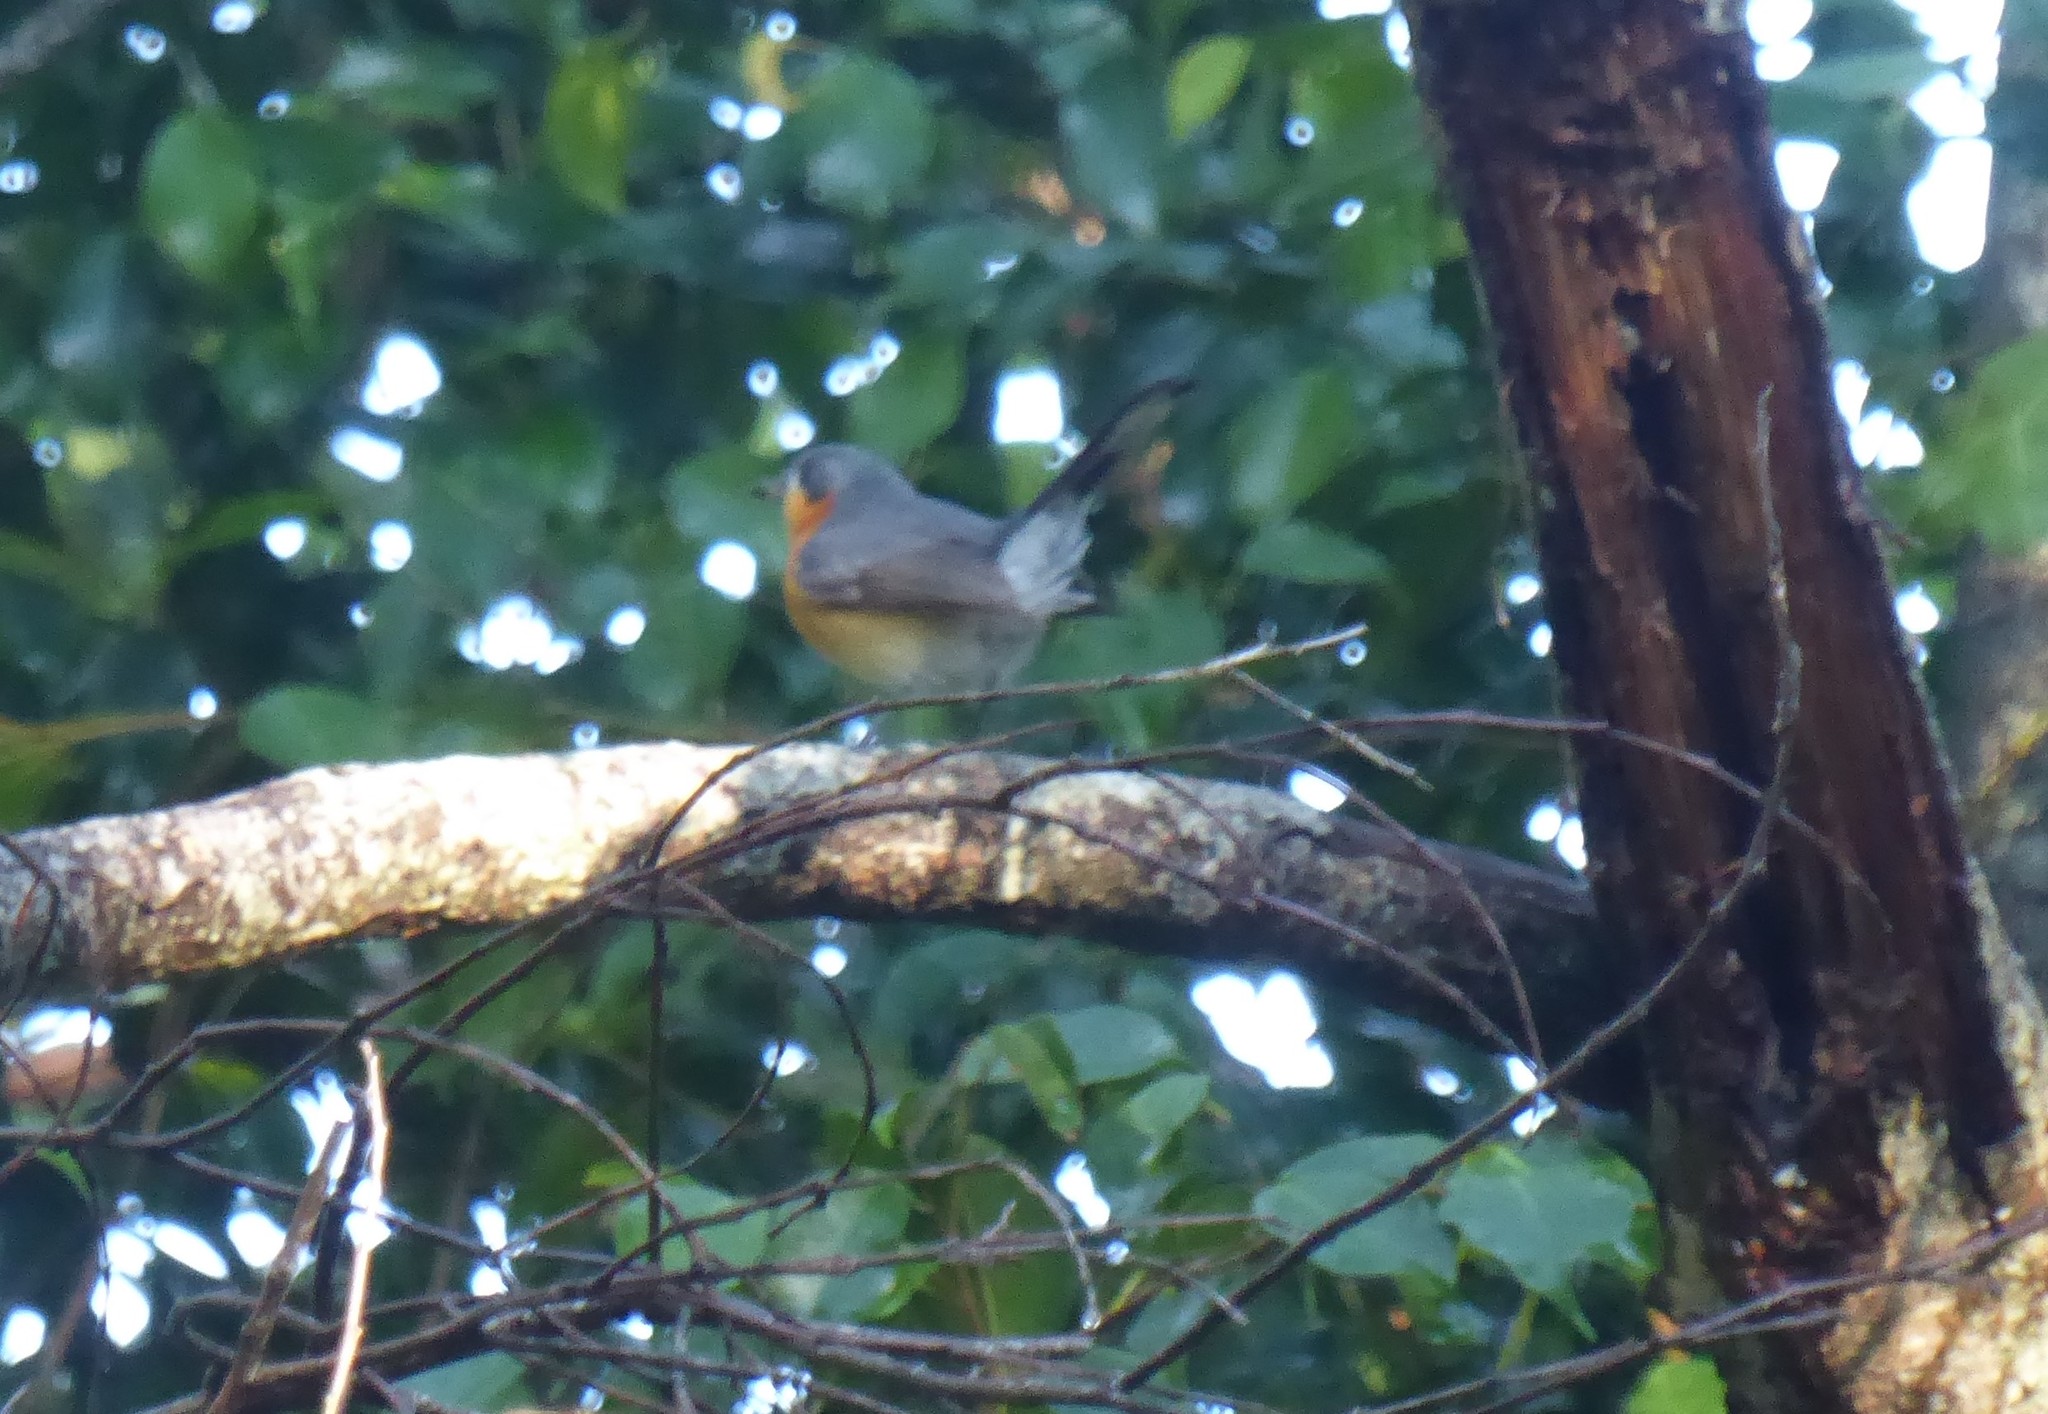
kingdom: Animalia
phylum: Chordata
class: Aves
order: Passeriformes
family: Monarchidae
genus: Symposiachrus
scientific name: Symposiachrus trivirgatus
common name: Spectacled monarch
